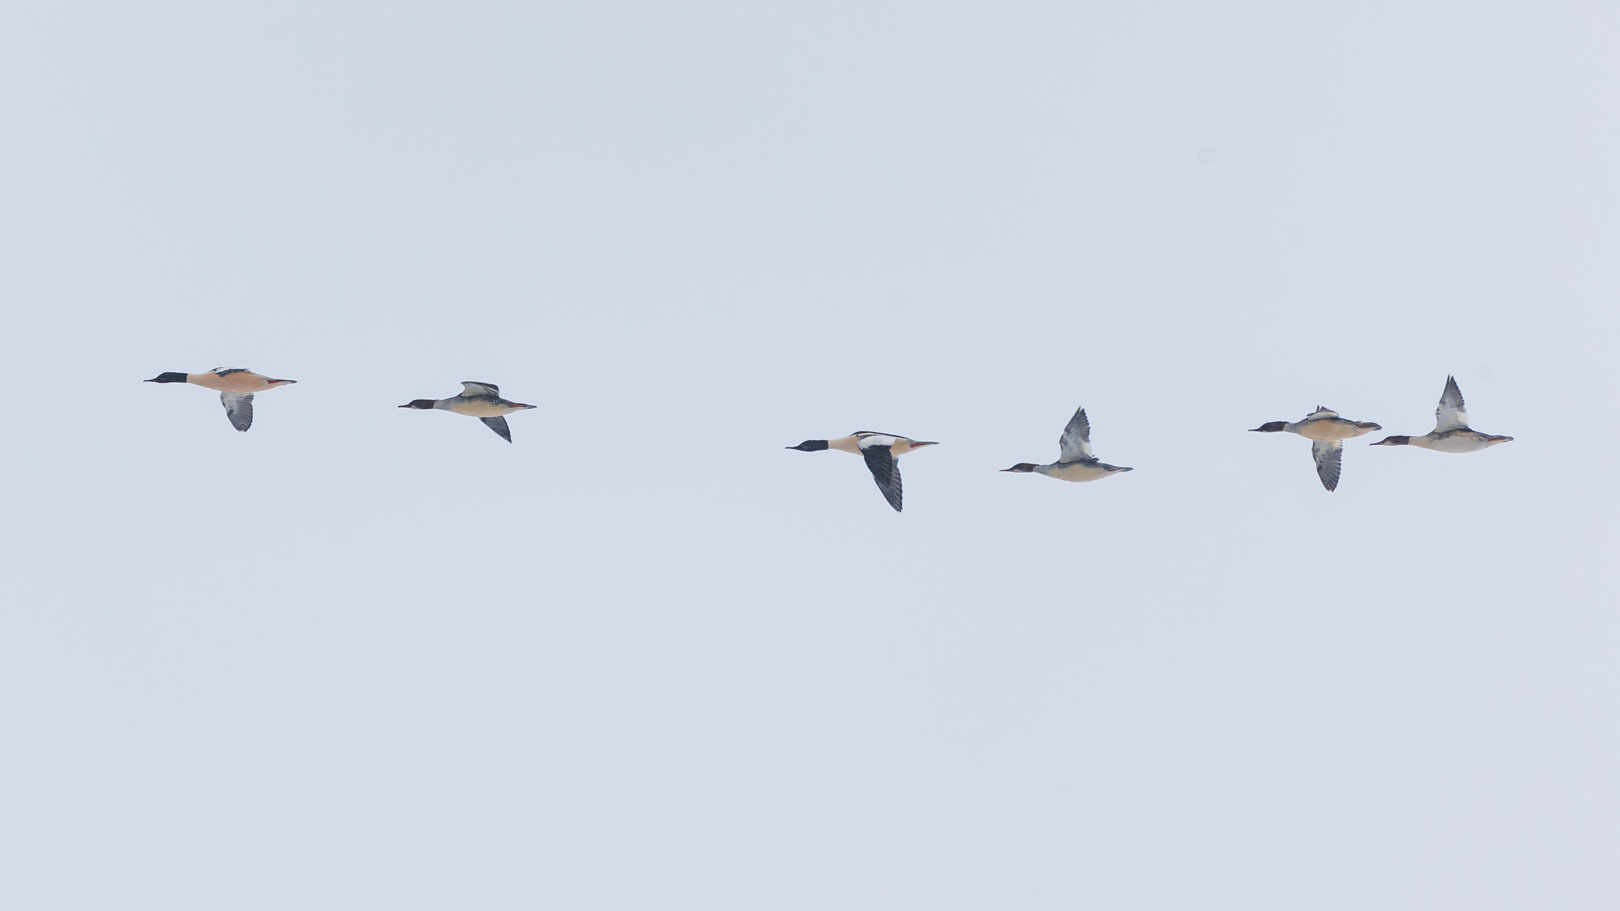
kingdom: Animalia
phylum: Chordata
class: Aves
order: Anseriformes
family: Anatidae
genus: Mergus
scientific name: Mergus merganser
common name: Common merganser
